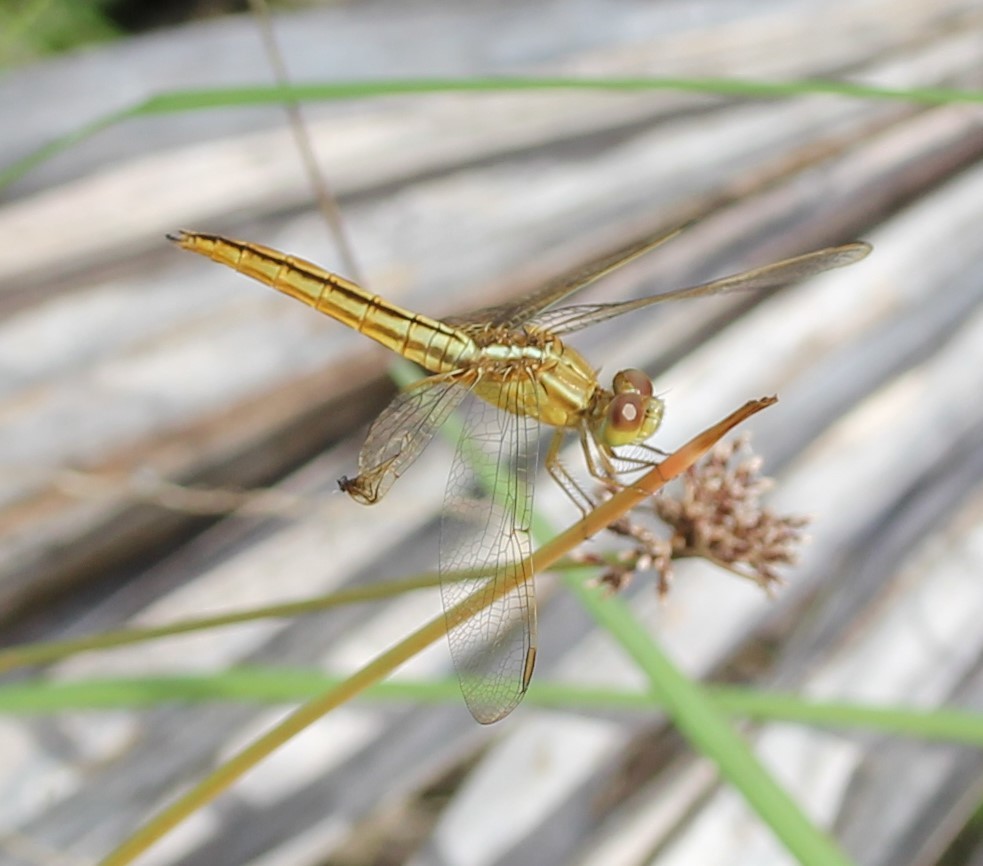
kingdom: Animalia
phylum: Arthropoda
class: Insecta
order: Odonata
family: Libellulidae
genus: Crocothemis
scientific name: Crocothemis servilia
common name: Scarlet skimmer
